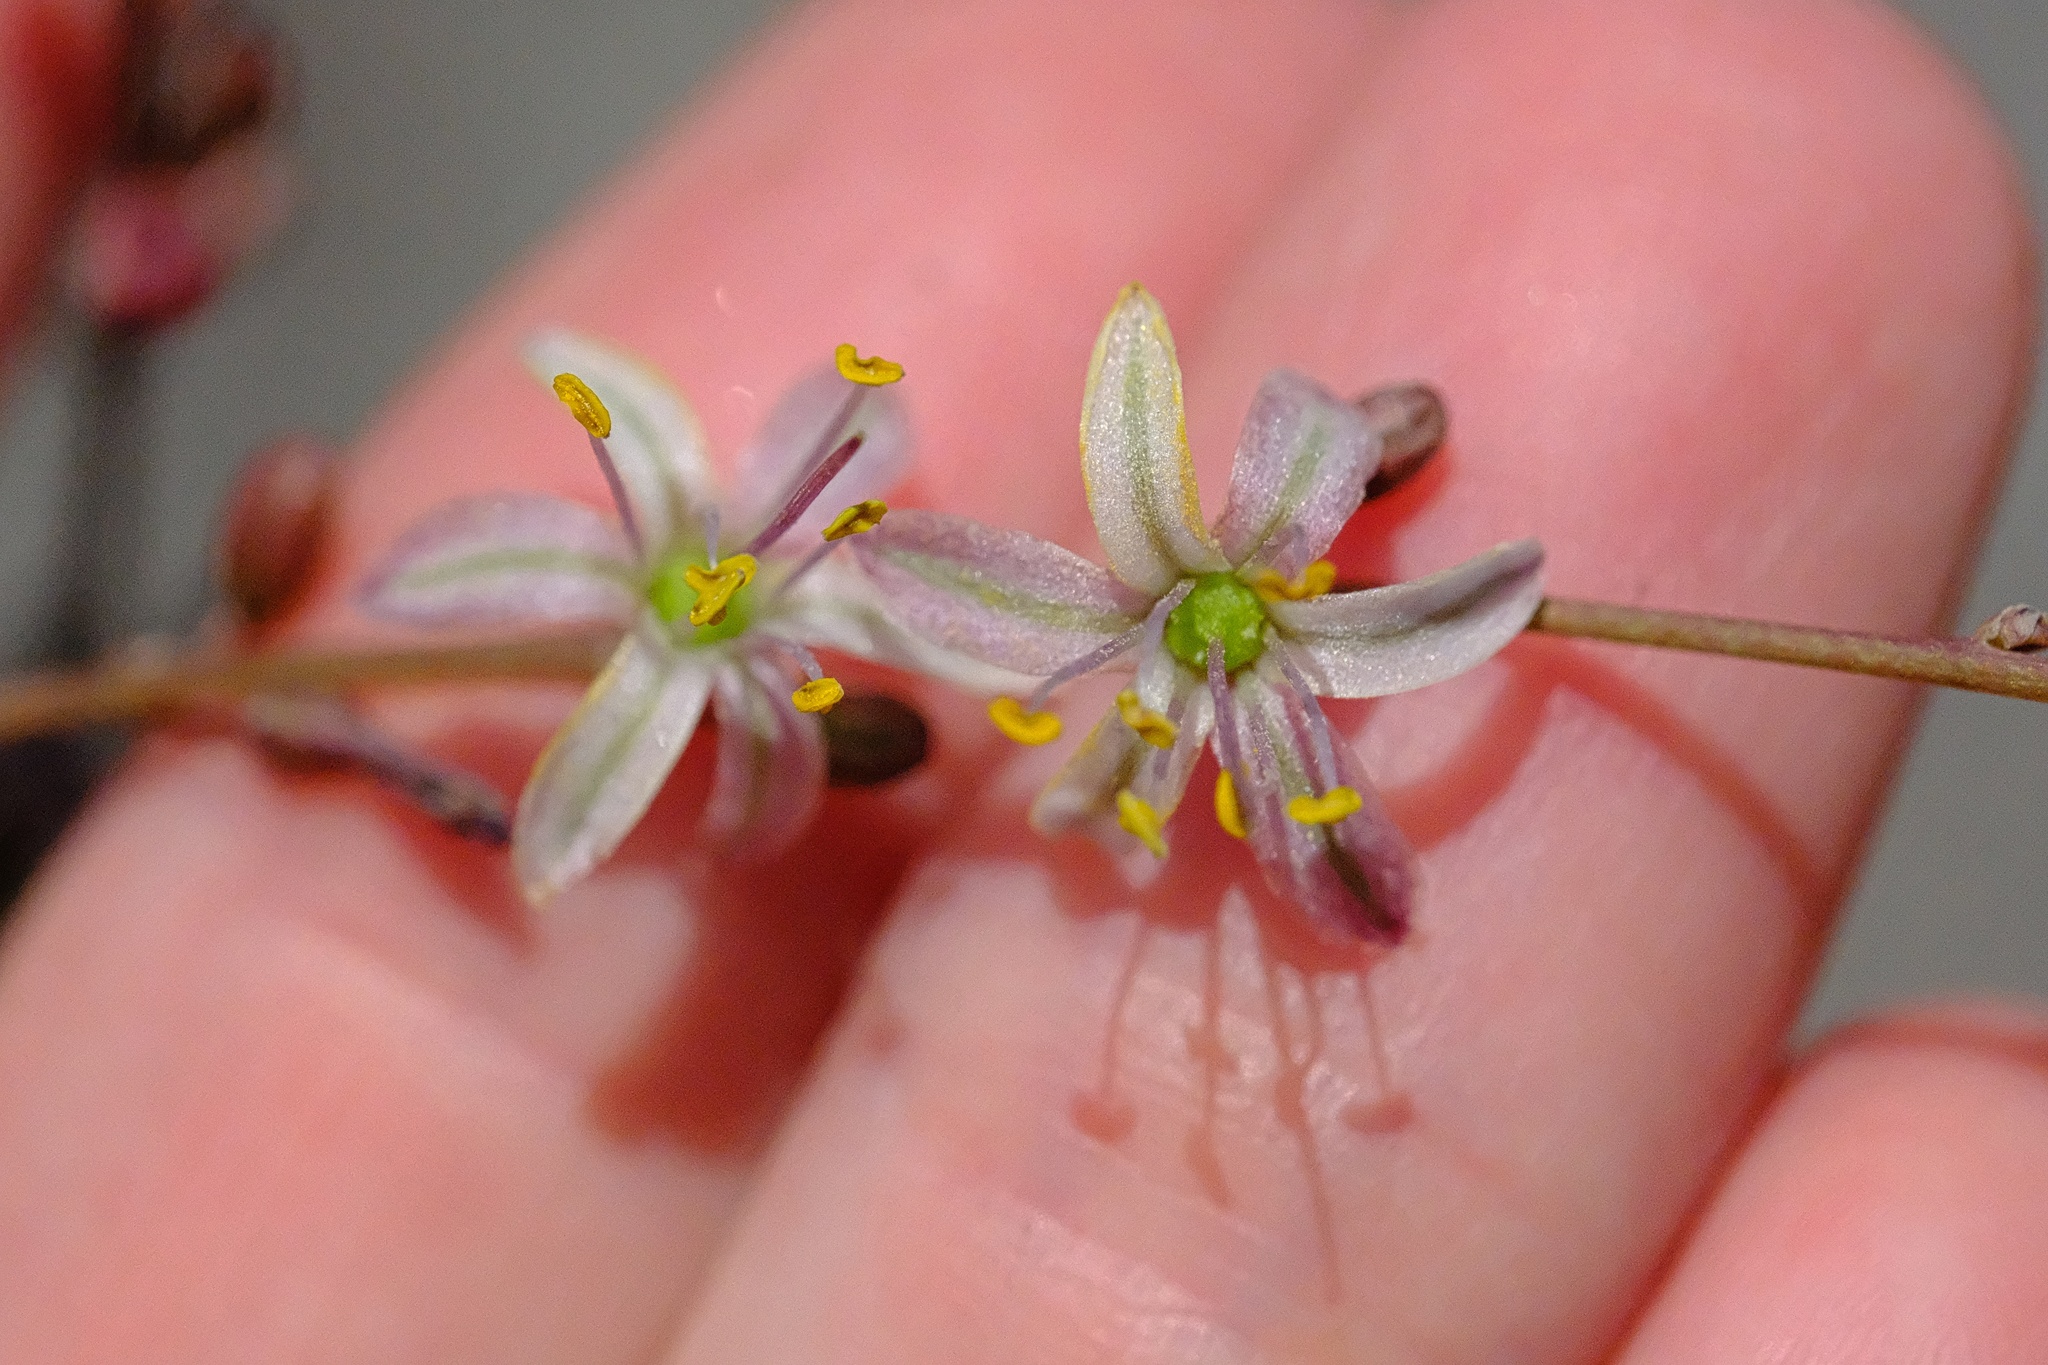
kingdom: Plantae
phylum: Tracheophyta
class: Liliopsida
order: Asparagales
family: Asparagaceae
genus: Hooveria
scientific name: Hooveria parviflora
